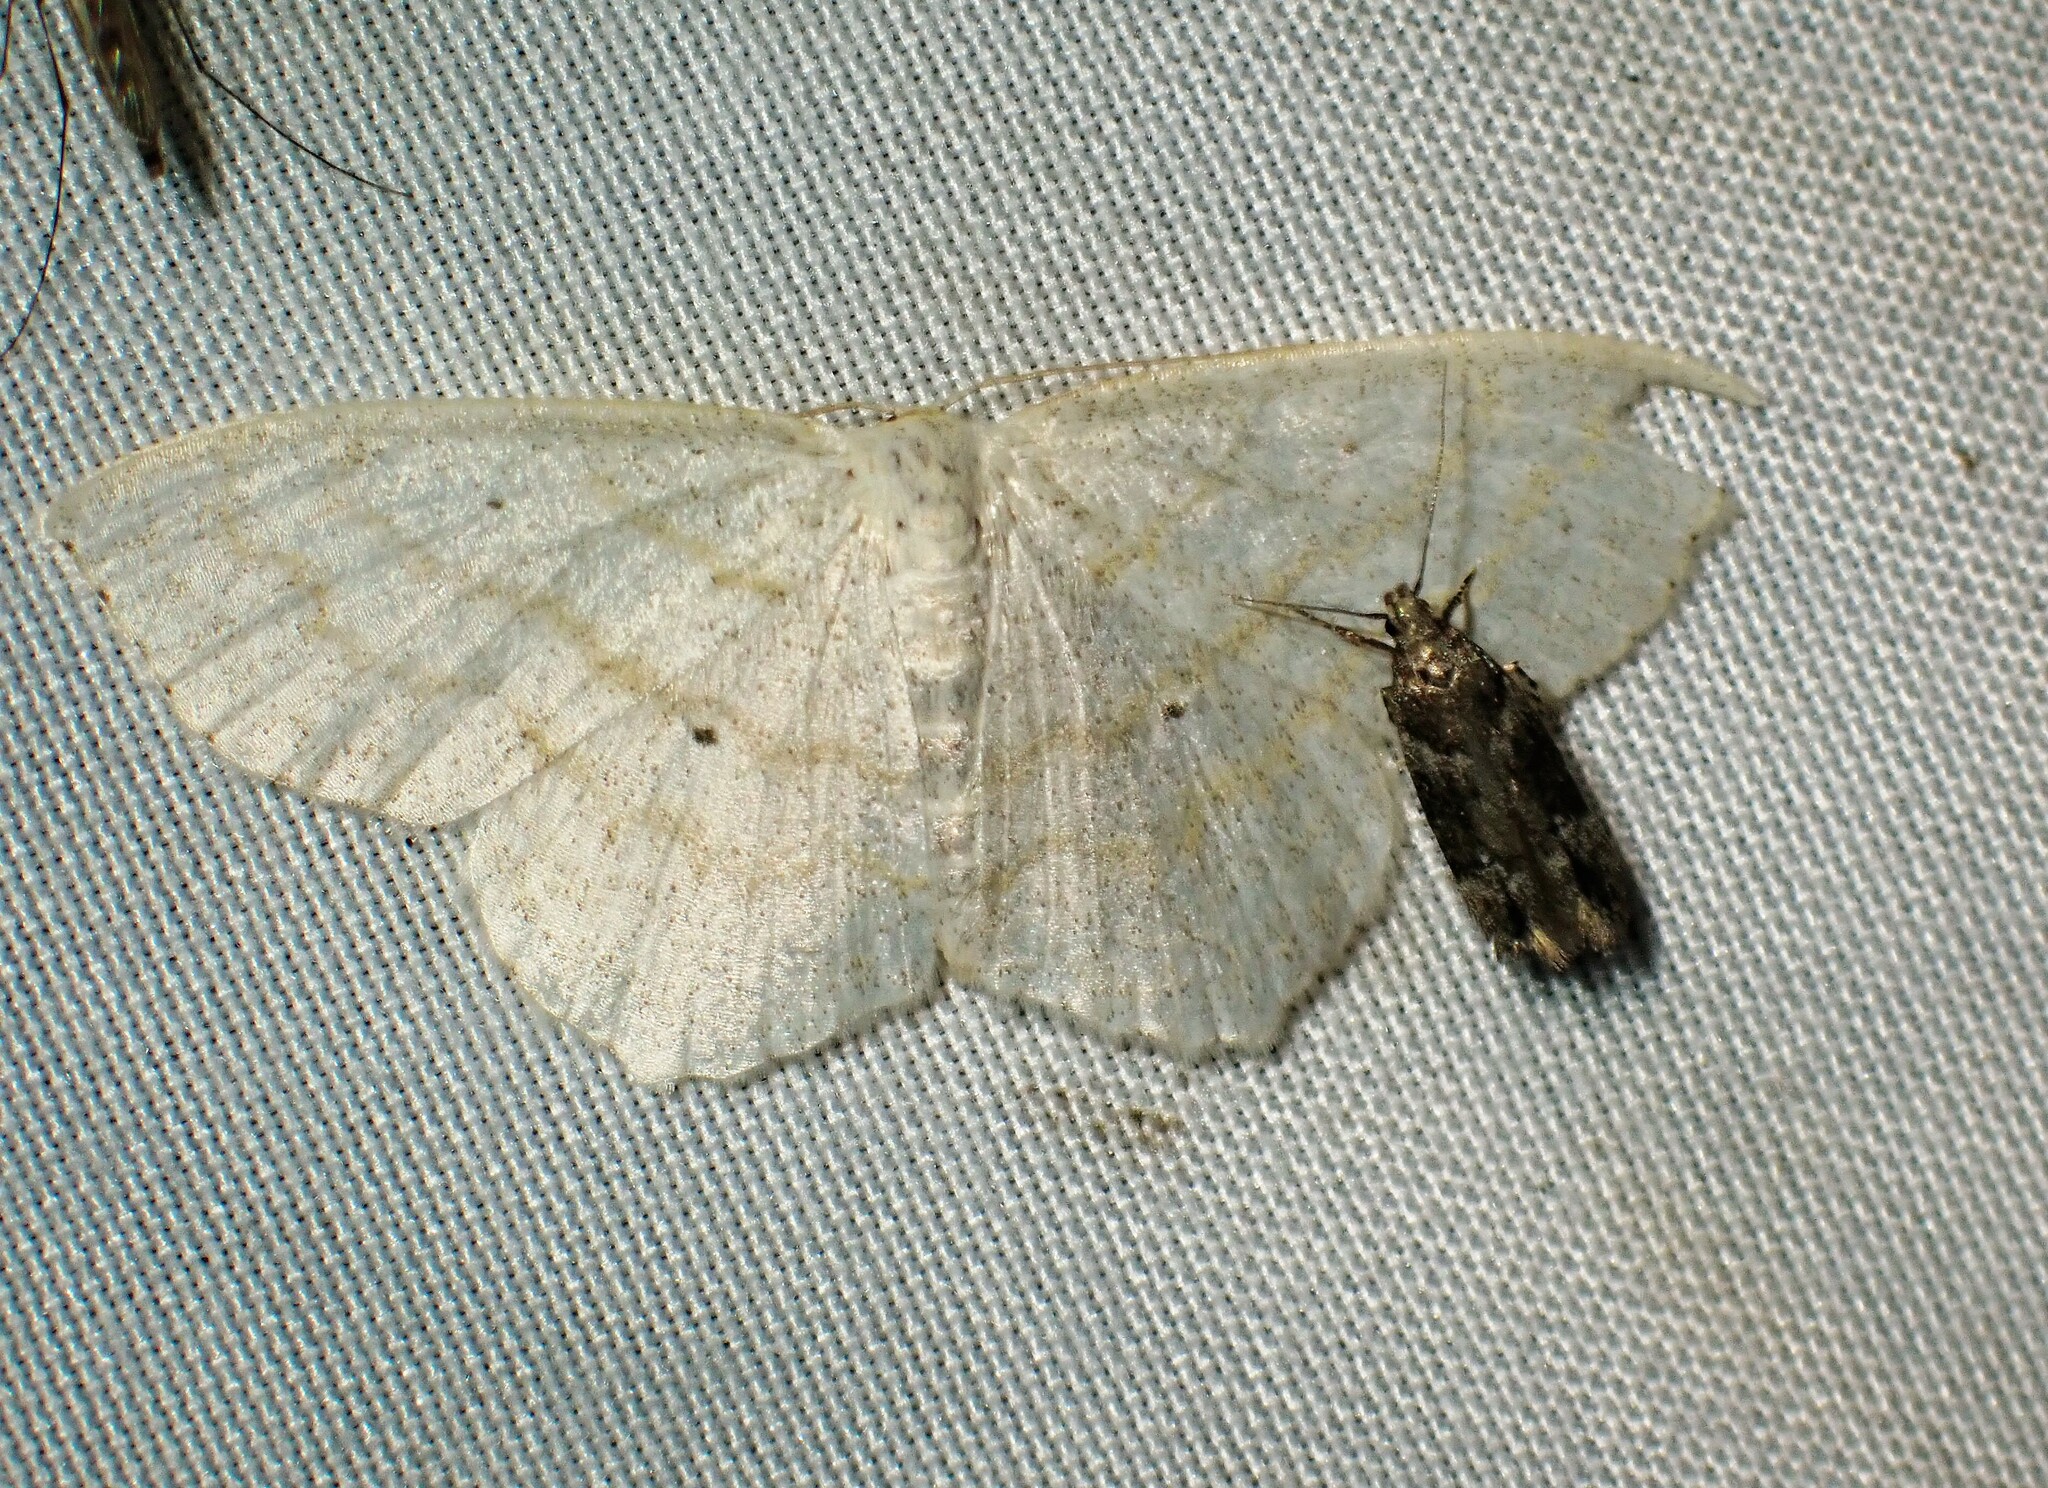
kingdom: Animalia
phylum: Arthropoda
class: Insecta
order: Lepidoptera
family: Geometridae
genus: Scopula
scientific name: Scopula limboundata
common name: Large lace border
